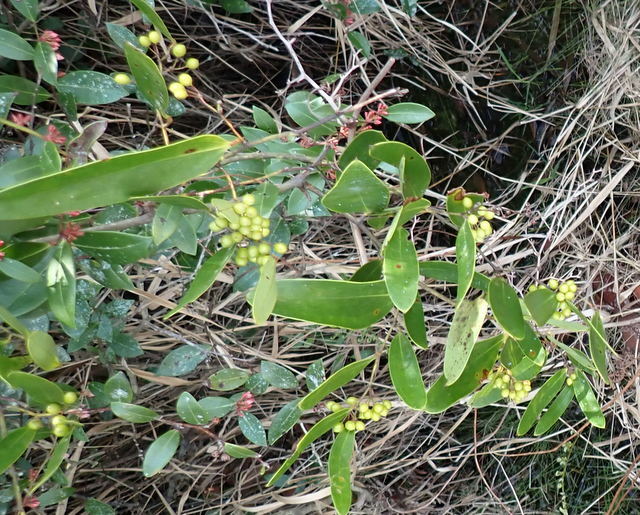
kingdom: Plantae
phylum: Tracheophyta
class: Liliopsida
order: Liliales
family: Smilacaceae
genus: Smilax
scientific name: Smilax laurifolia
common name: Bamboovine
